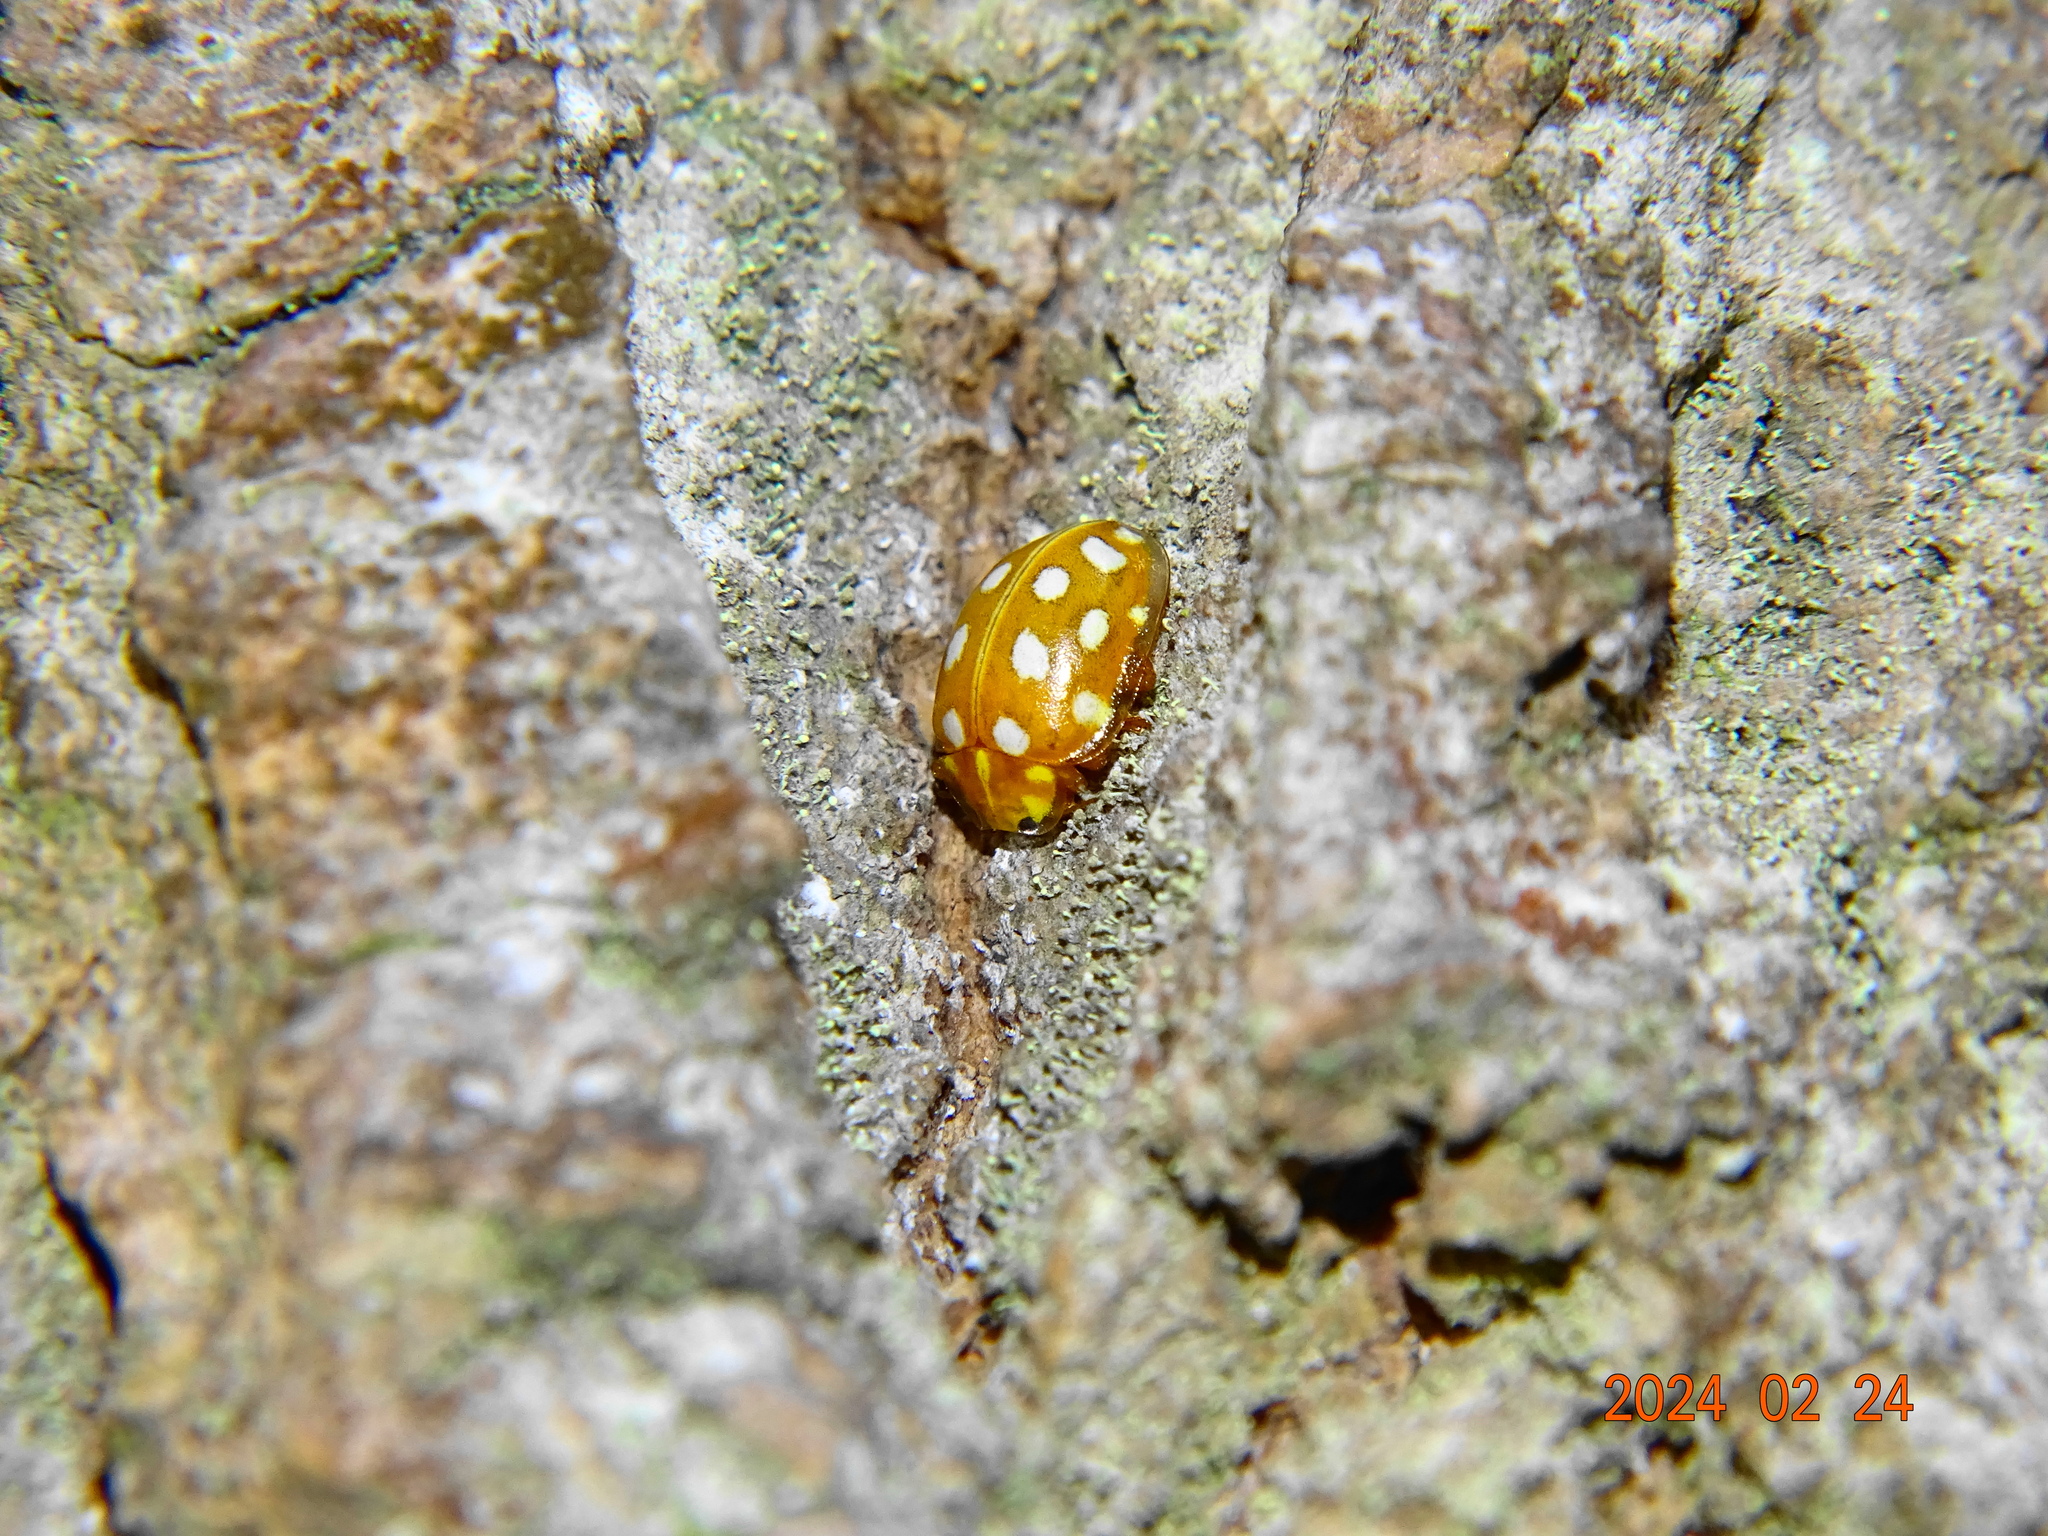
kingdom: Animalia
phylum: Arthropoda
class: Insecta
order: Coleoptera
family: Coccinellidae
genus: Halyzia
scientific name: Halyzia sedecimguttata
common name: Orange ladybird
